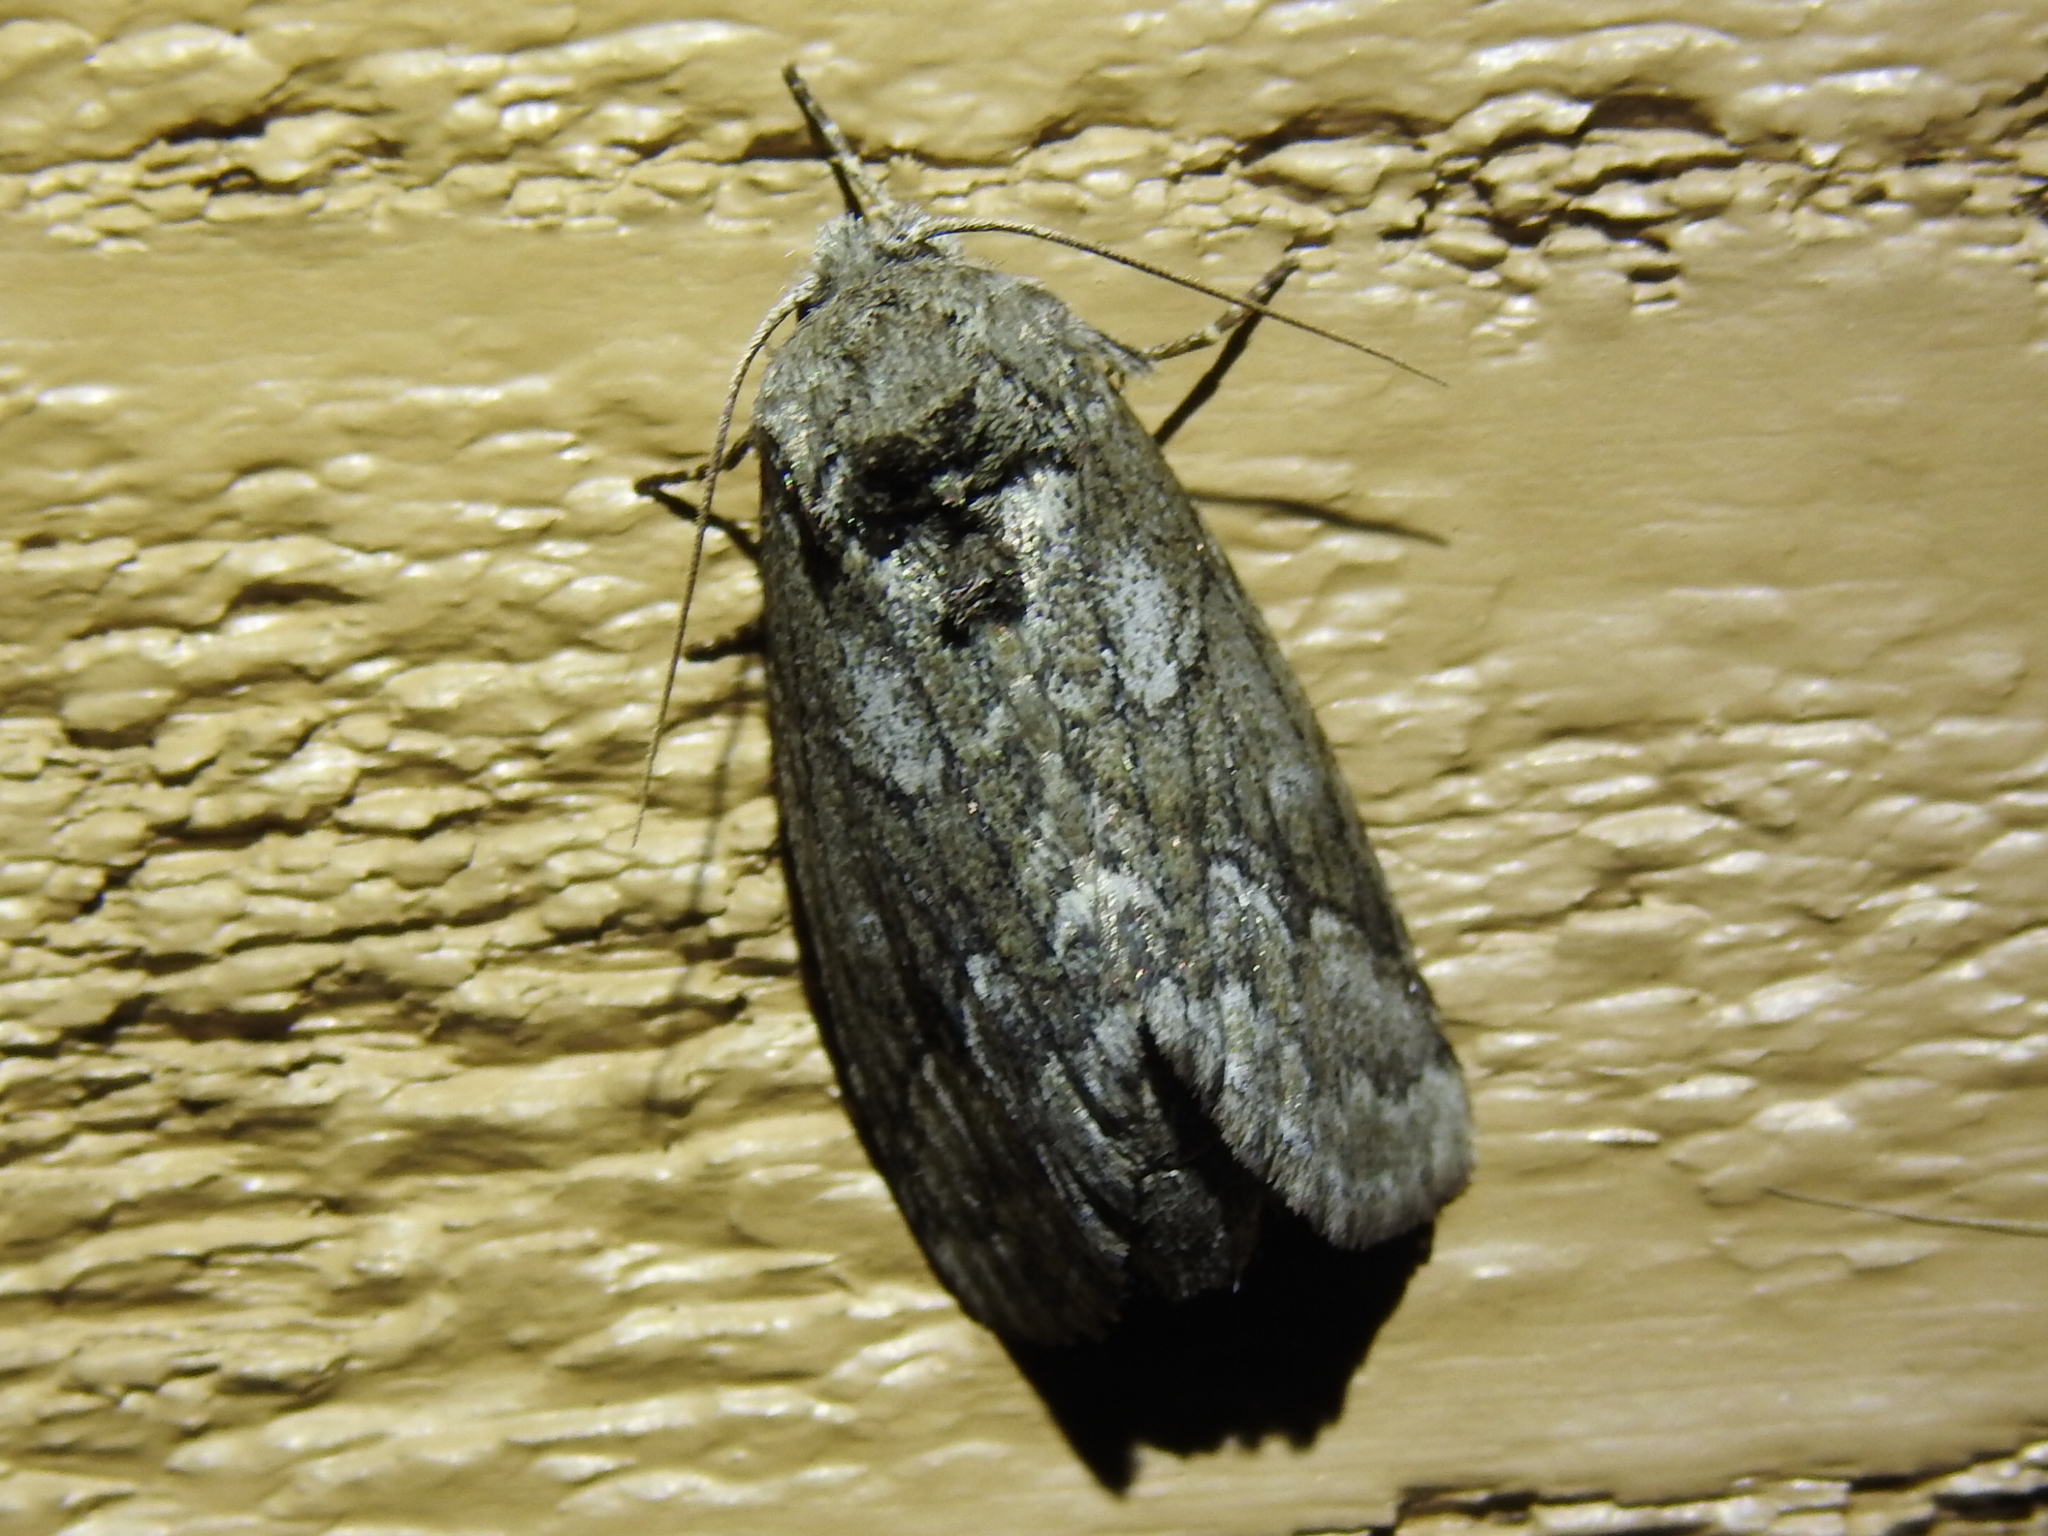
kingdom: Animalia
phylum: Arthropoda
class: Insecta
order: Lepidoptera
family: Notodontidae
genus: Lochmaeus
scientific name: Lochmaeus bilineata
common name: Double-lined prominent
